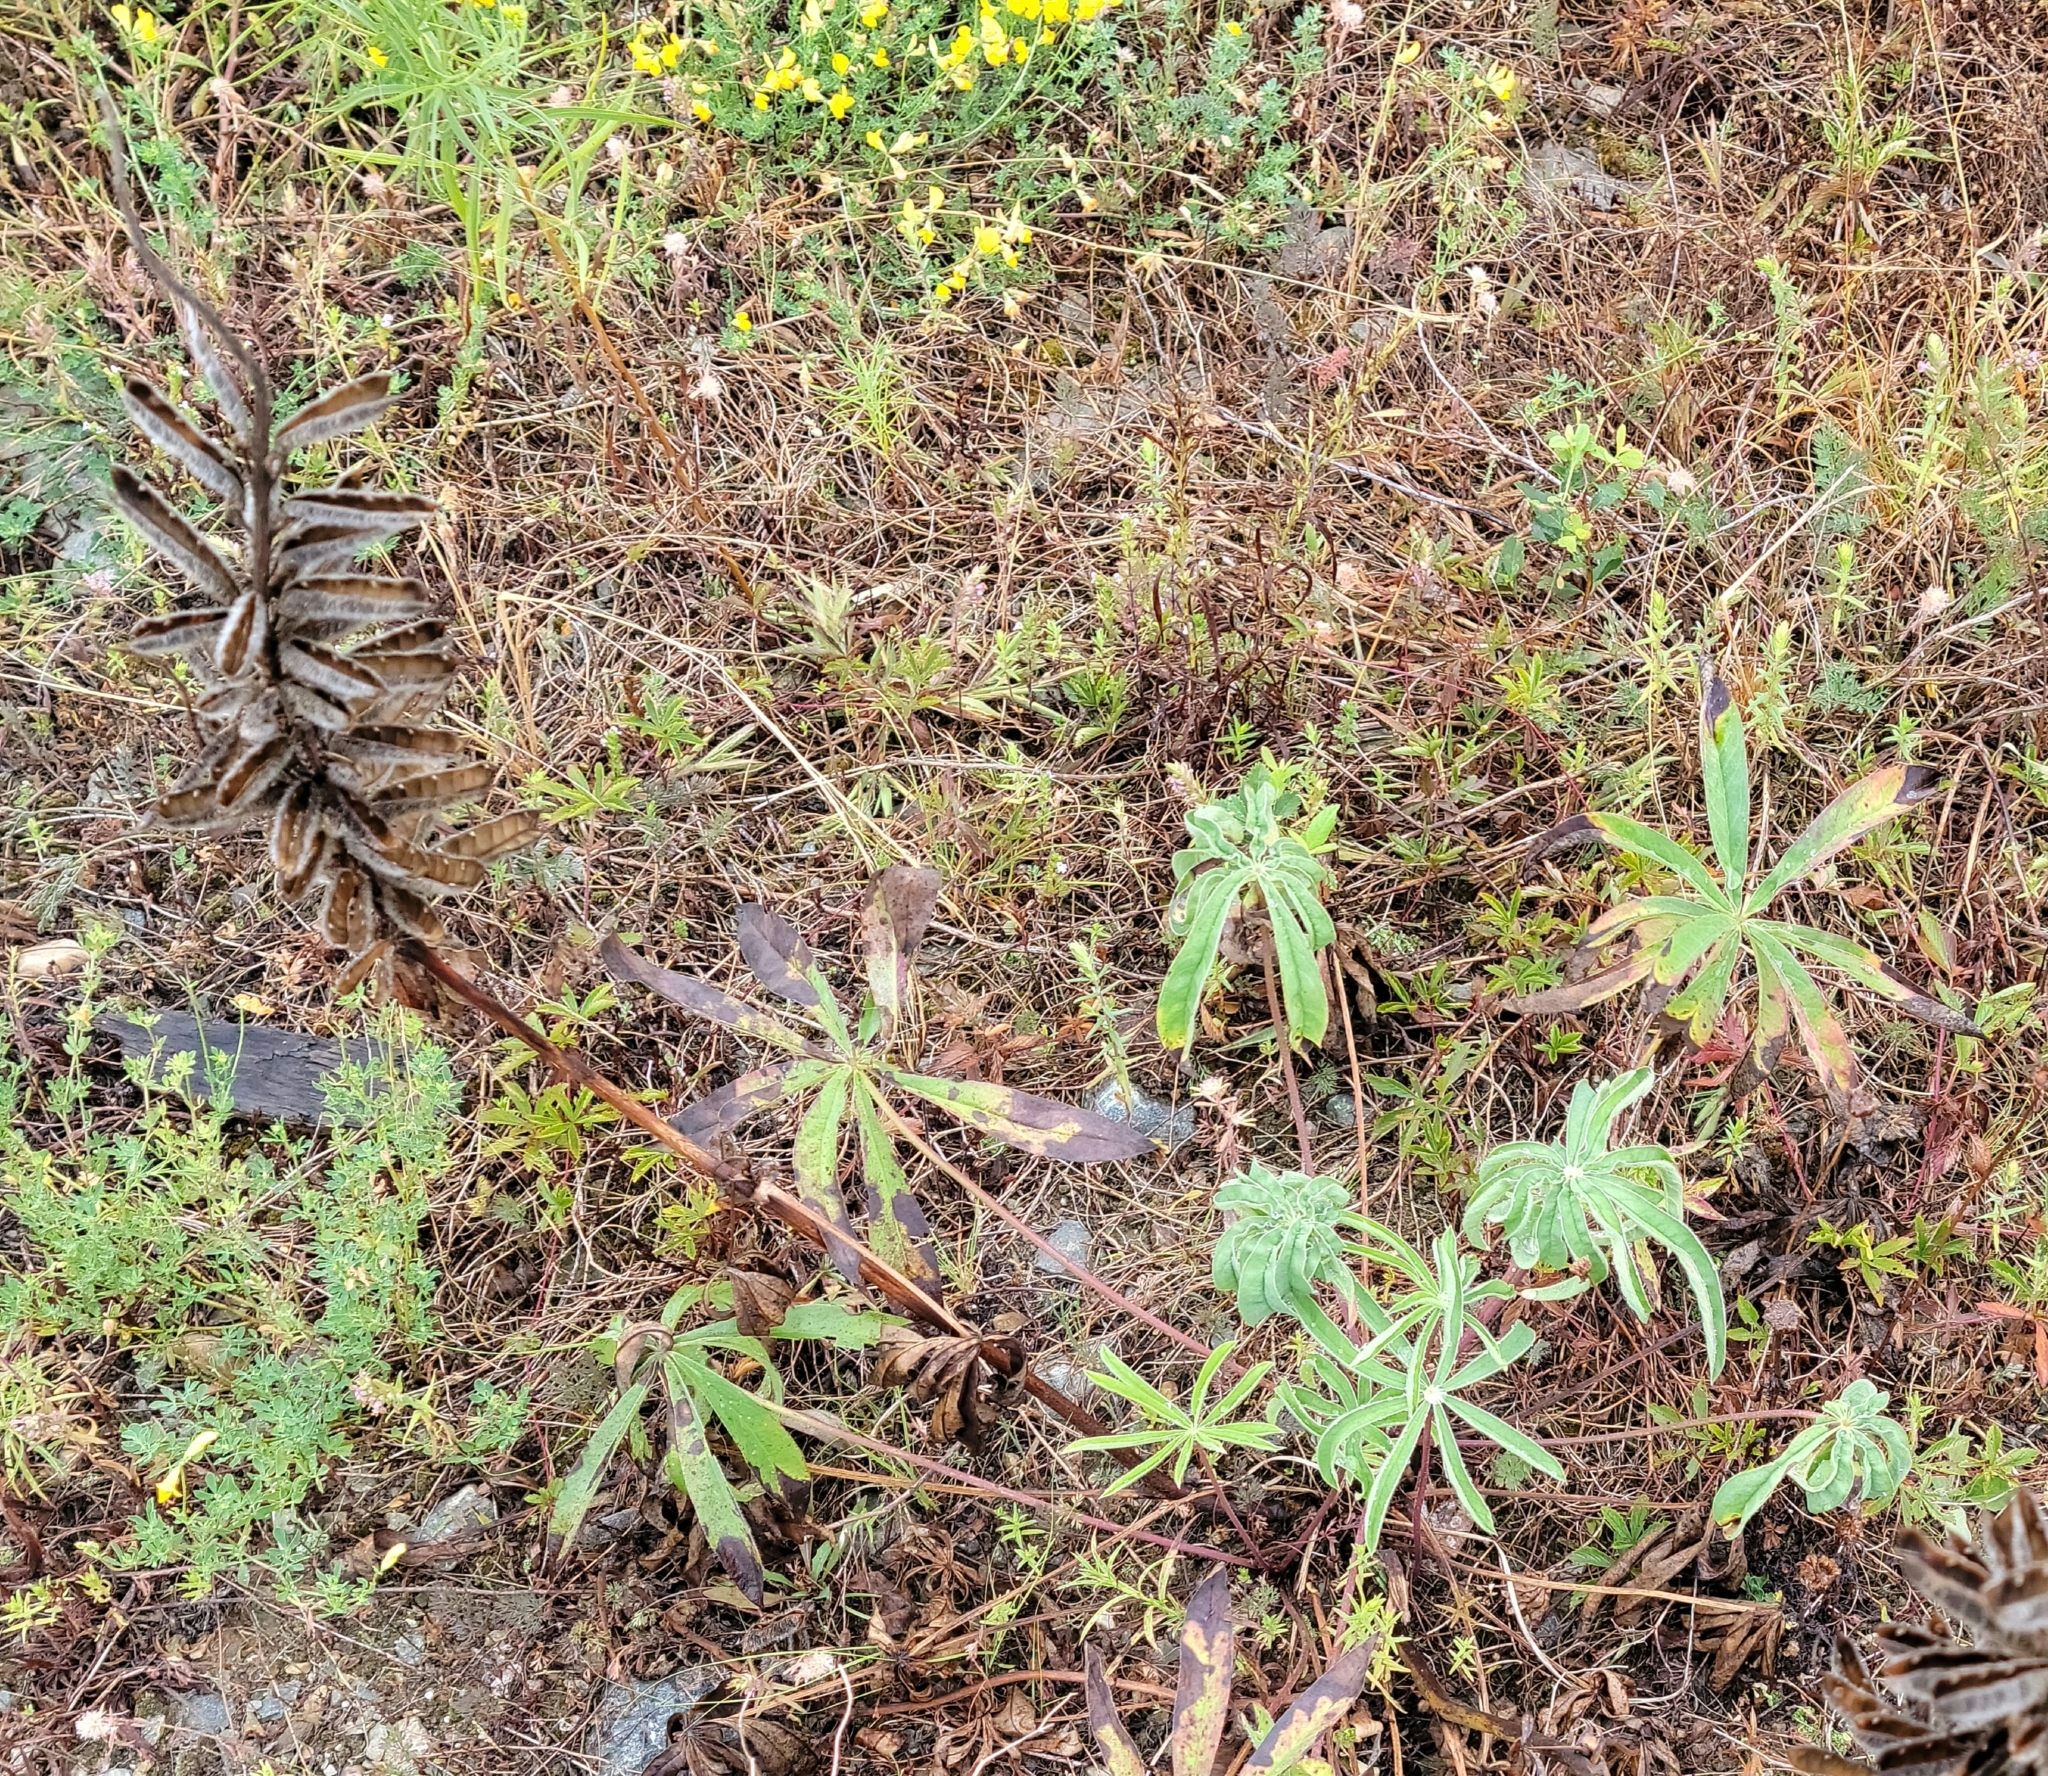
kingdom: Plantae
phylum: Tracheophyta
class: Magnoliopsida
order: Fabales
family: Fabaceae
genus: Lupinus
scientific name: Lupinus polyphyllus
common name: Garden lupin
